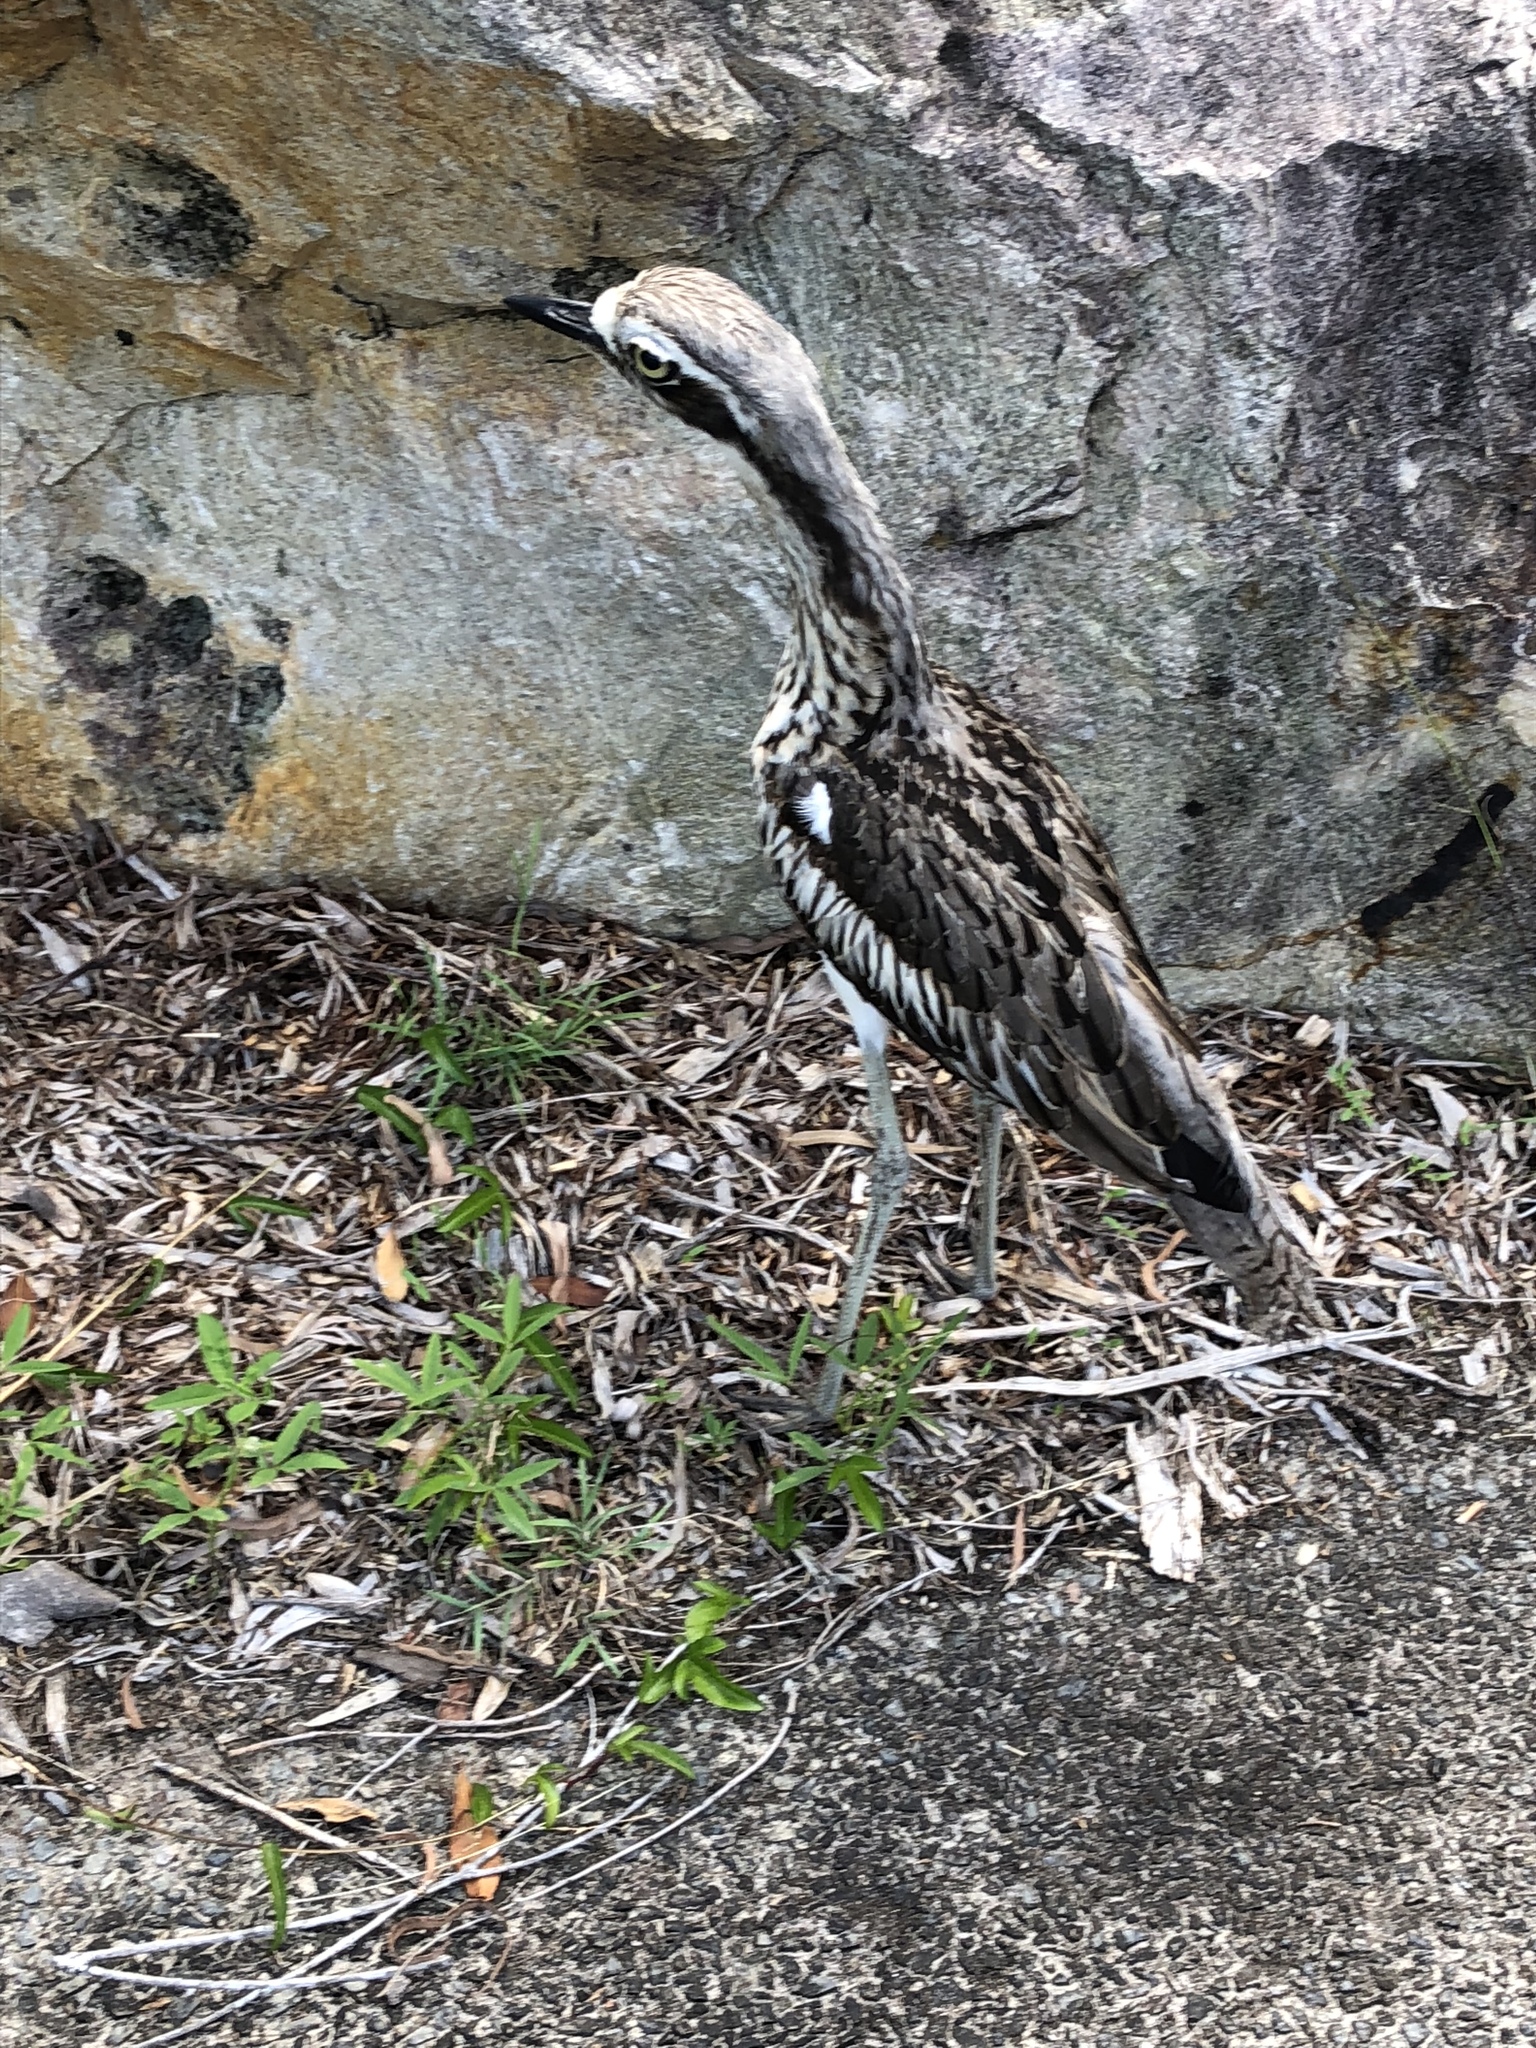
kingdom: Animalia
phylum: Chordata
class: Aves
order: Charadriiformes
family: Burhinidae
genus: Burhinus
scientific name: Burhinus grallarius
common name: Bush stone-curlew
